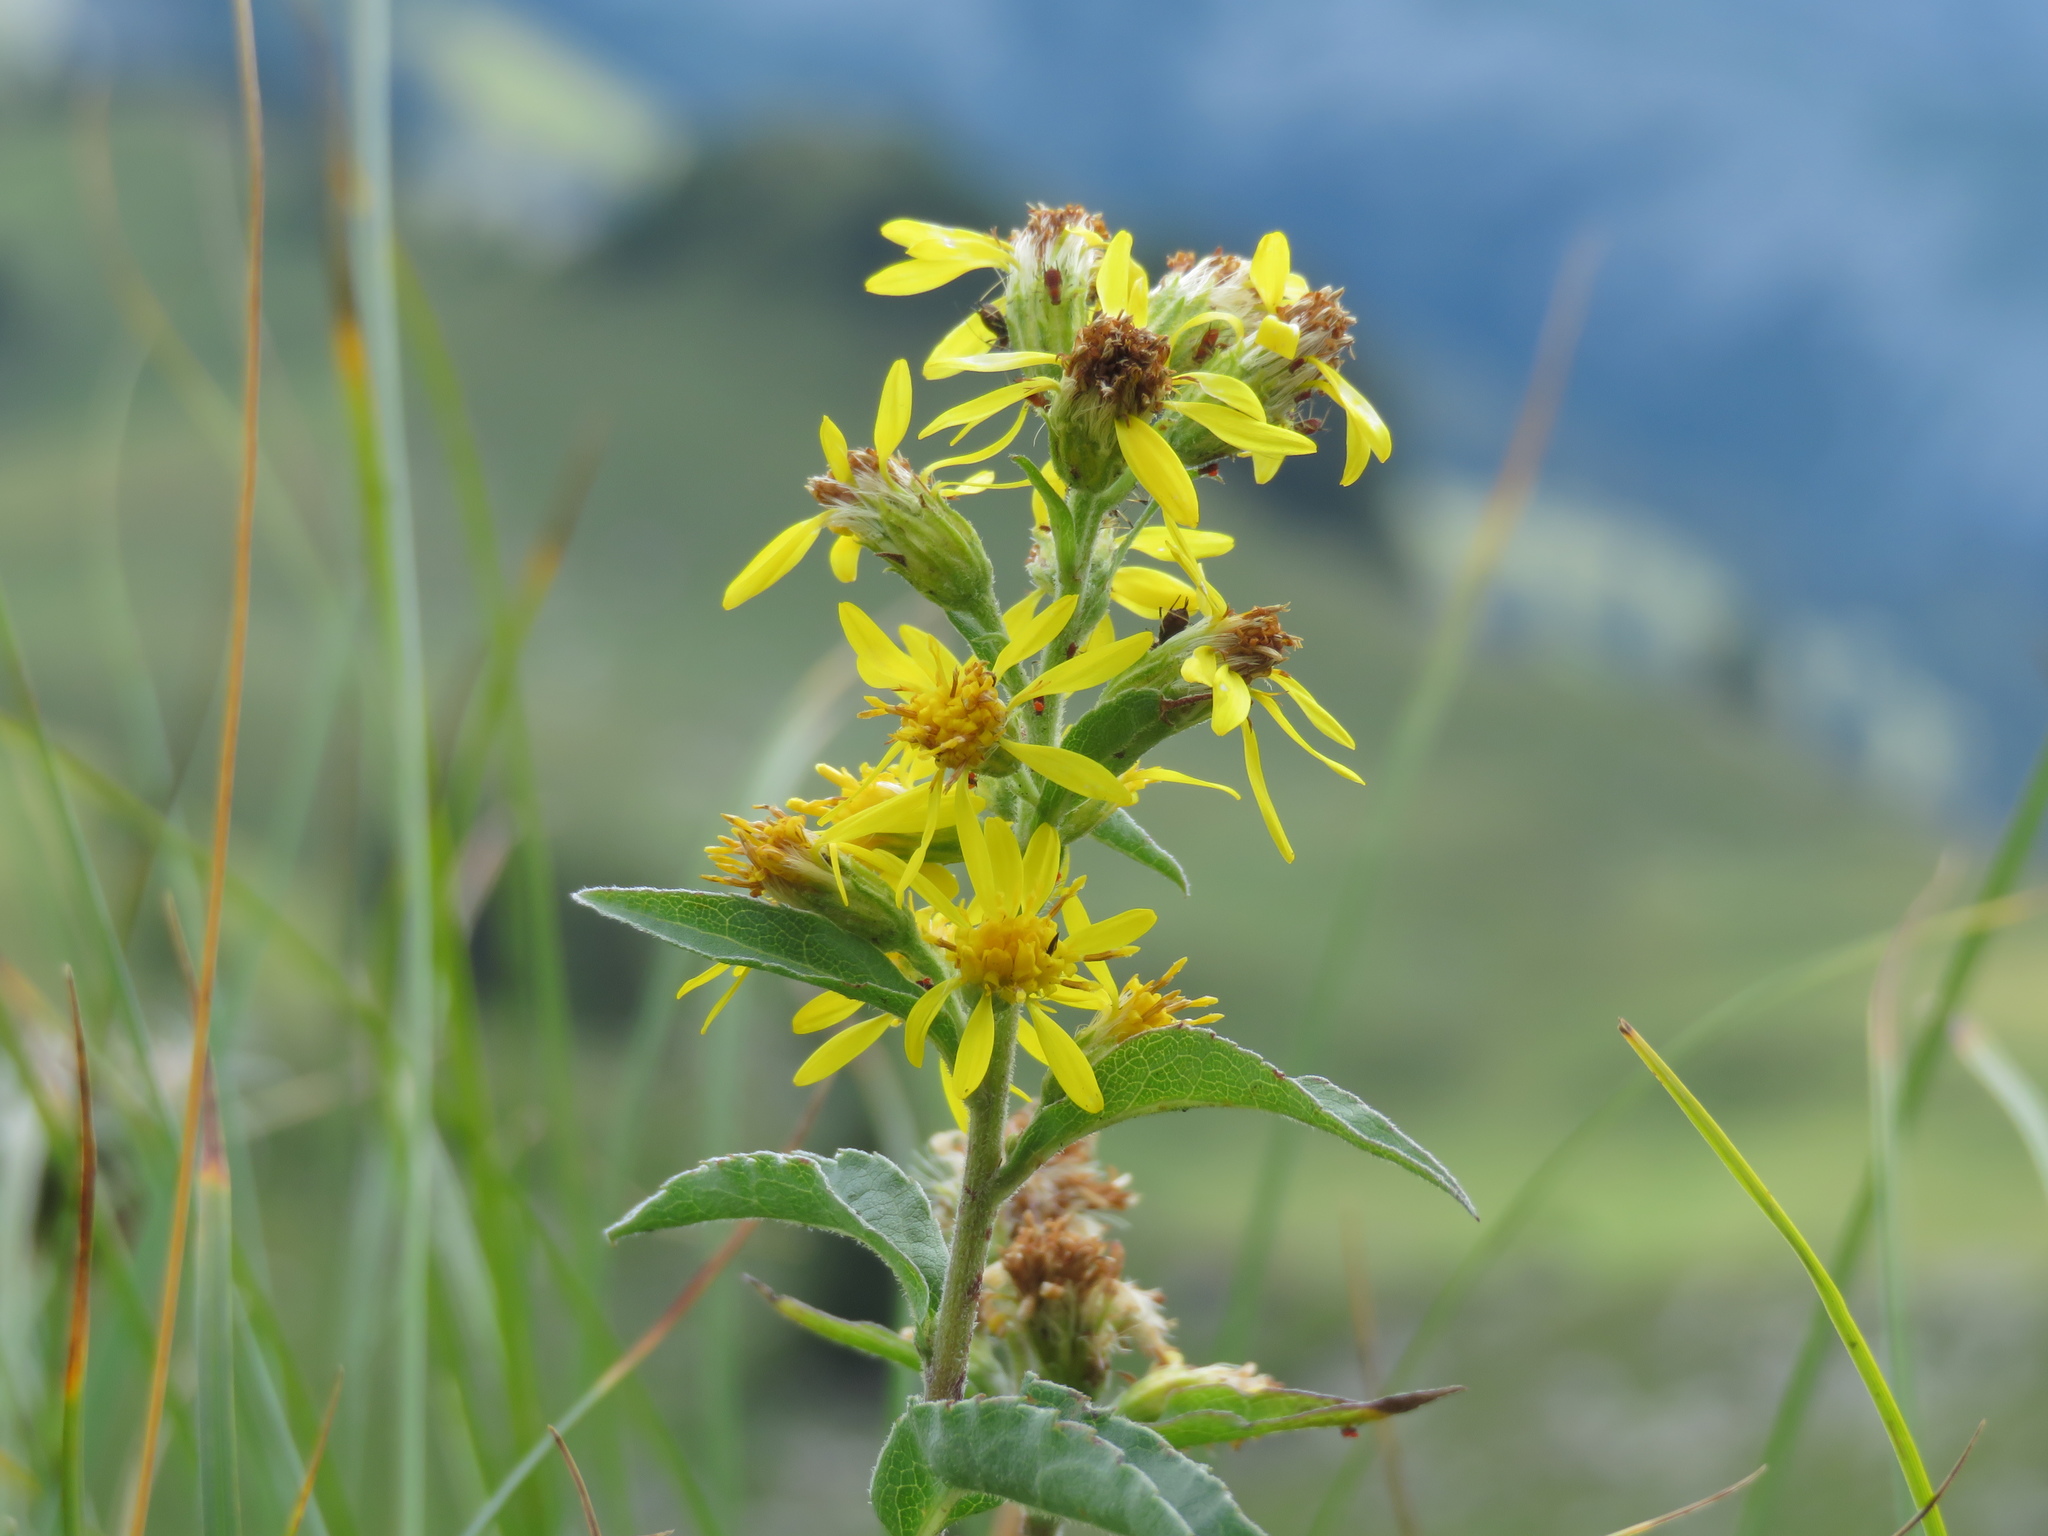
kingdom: Plantae
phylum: Tracheophyta
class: Magnoliopsida
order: Asterales
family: Asteraceae
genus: Solidago
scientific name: Solidago virgaurea
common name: Goldenrod
